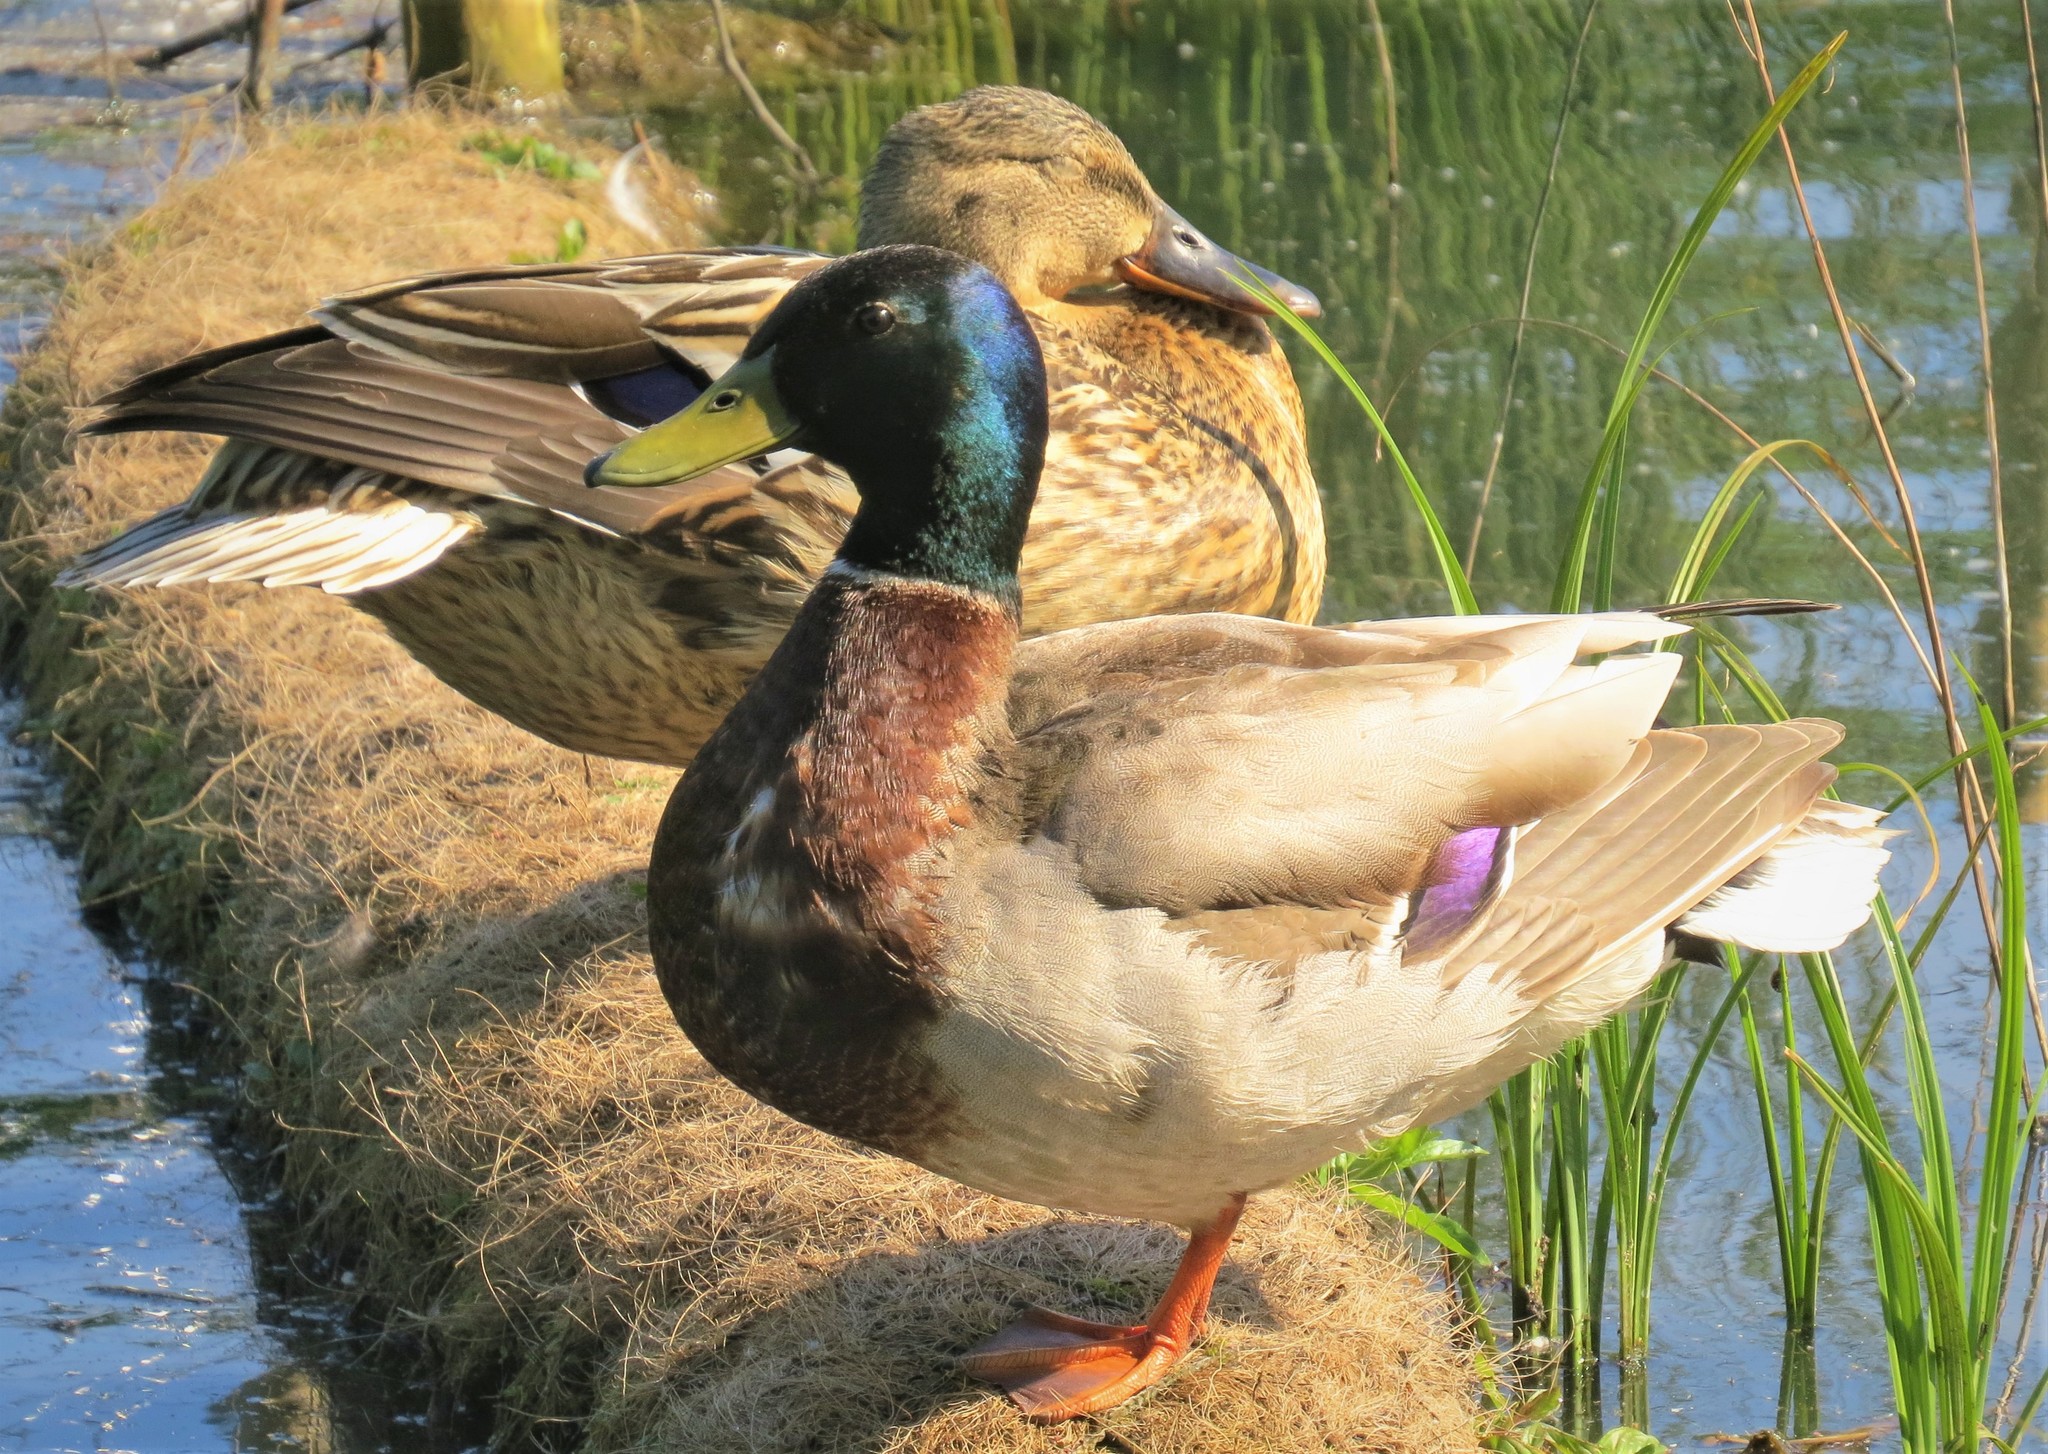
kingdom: Animalia
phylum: Chordata
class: Aves
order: Anseriformes
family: Anatidae
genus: Anas
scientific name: Anas platyrhynchos
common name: Mallard
